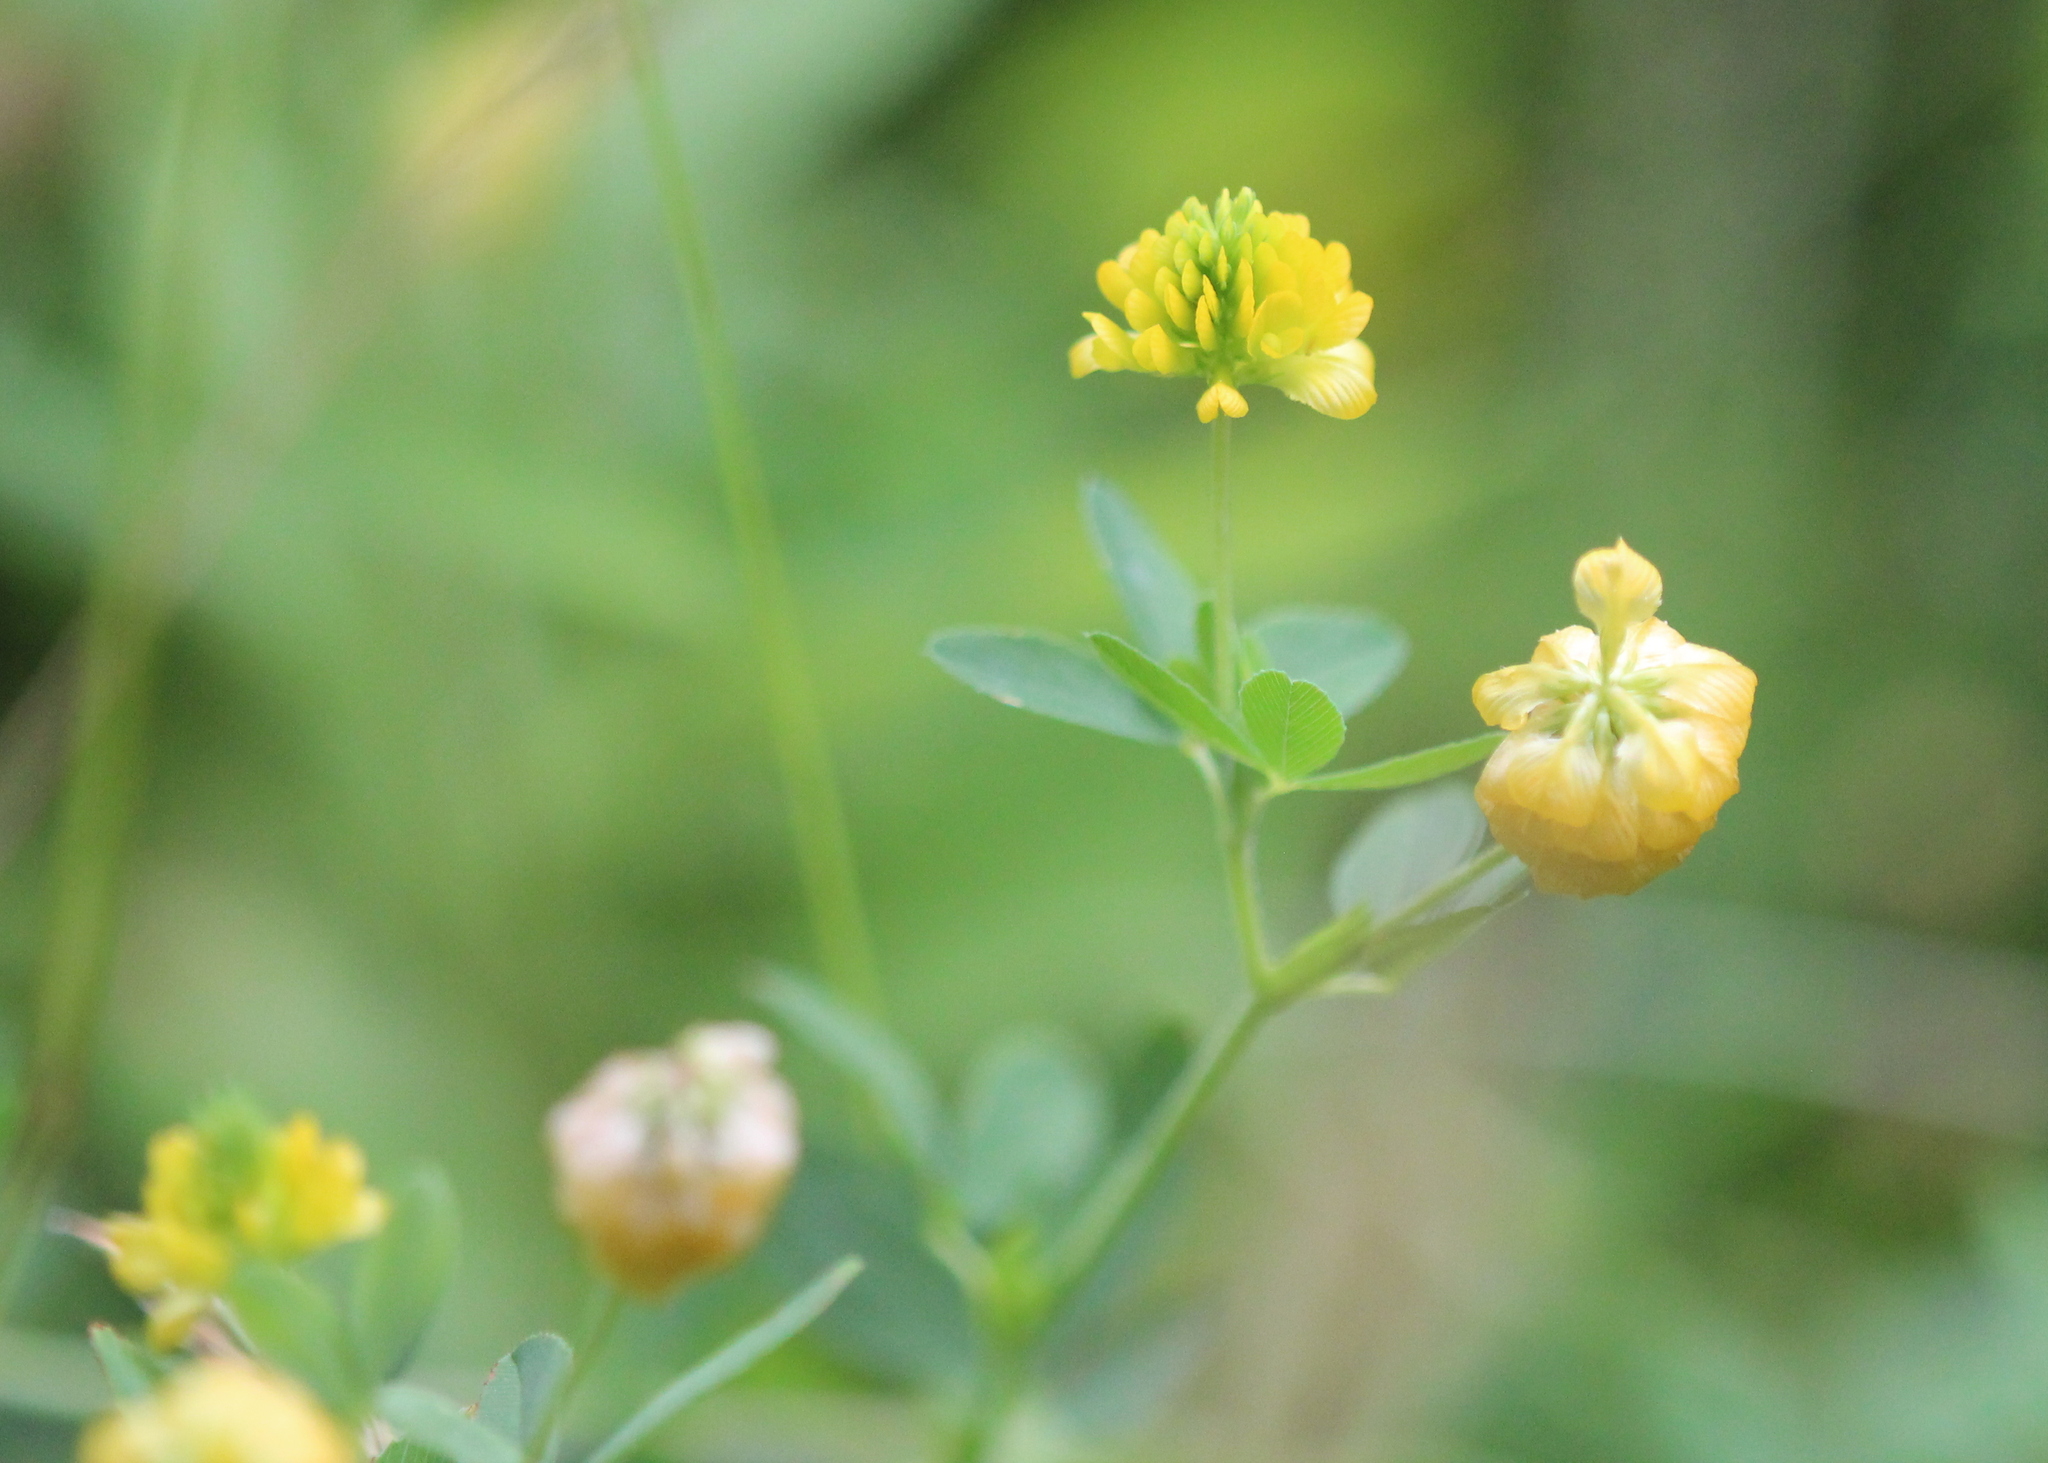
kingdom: Plantae
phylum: Tracheophyta
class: Magnoliopsida
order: Fabales
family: Fabaceae
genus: Trifolium
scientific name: Trifolium aureum
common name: Golden clover
